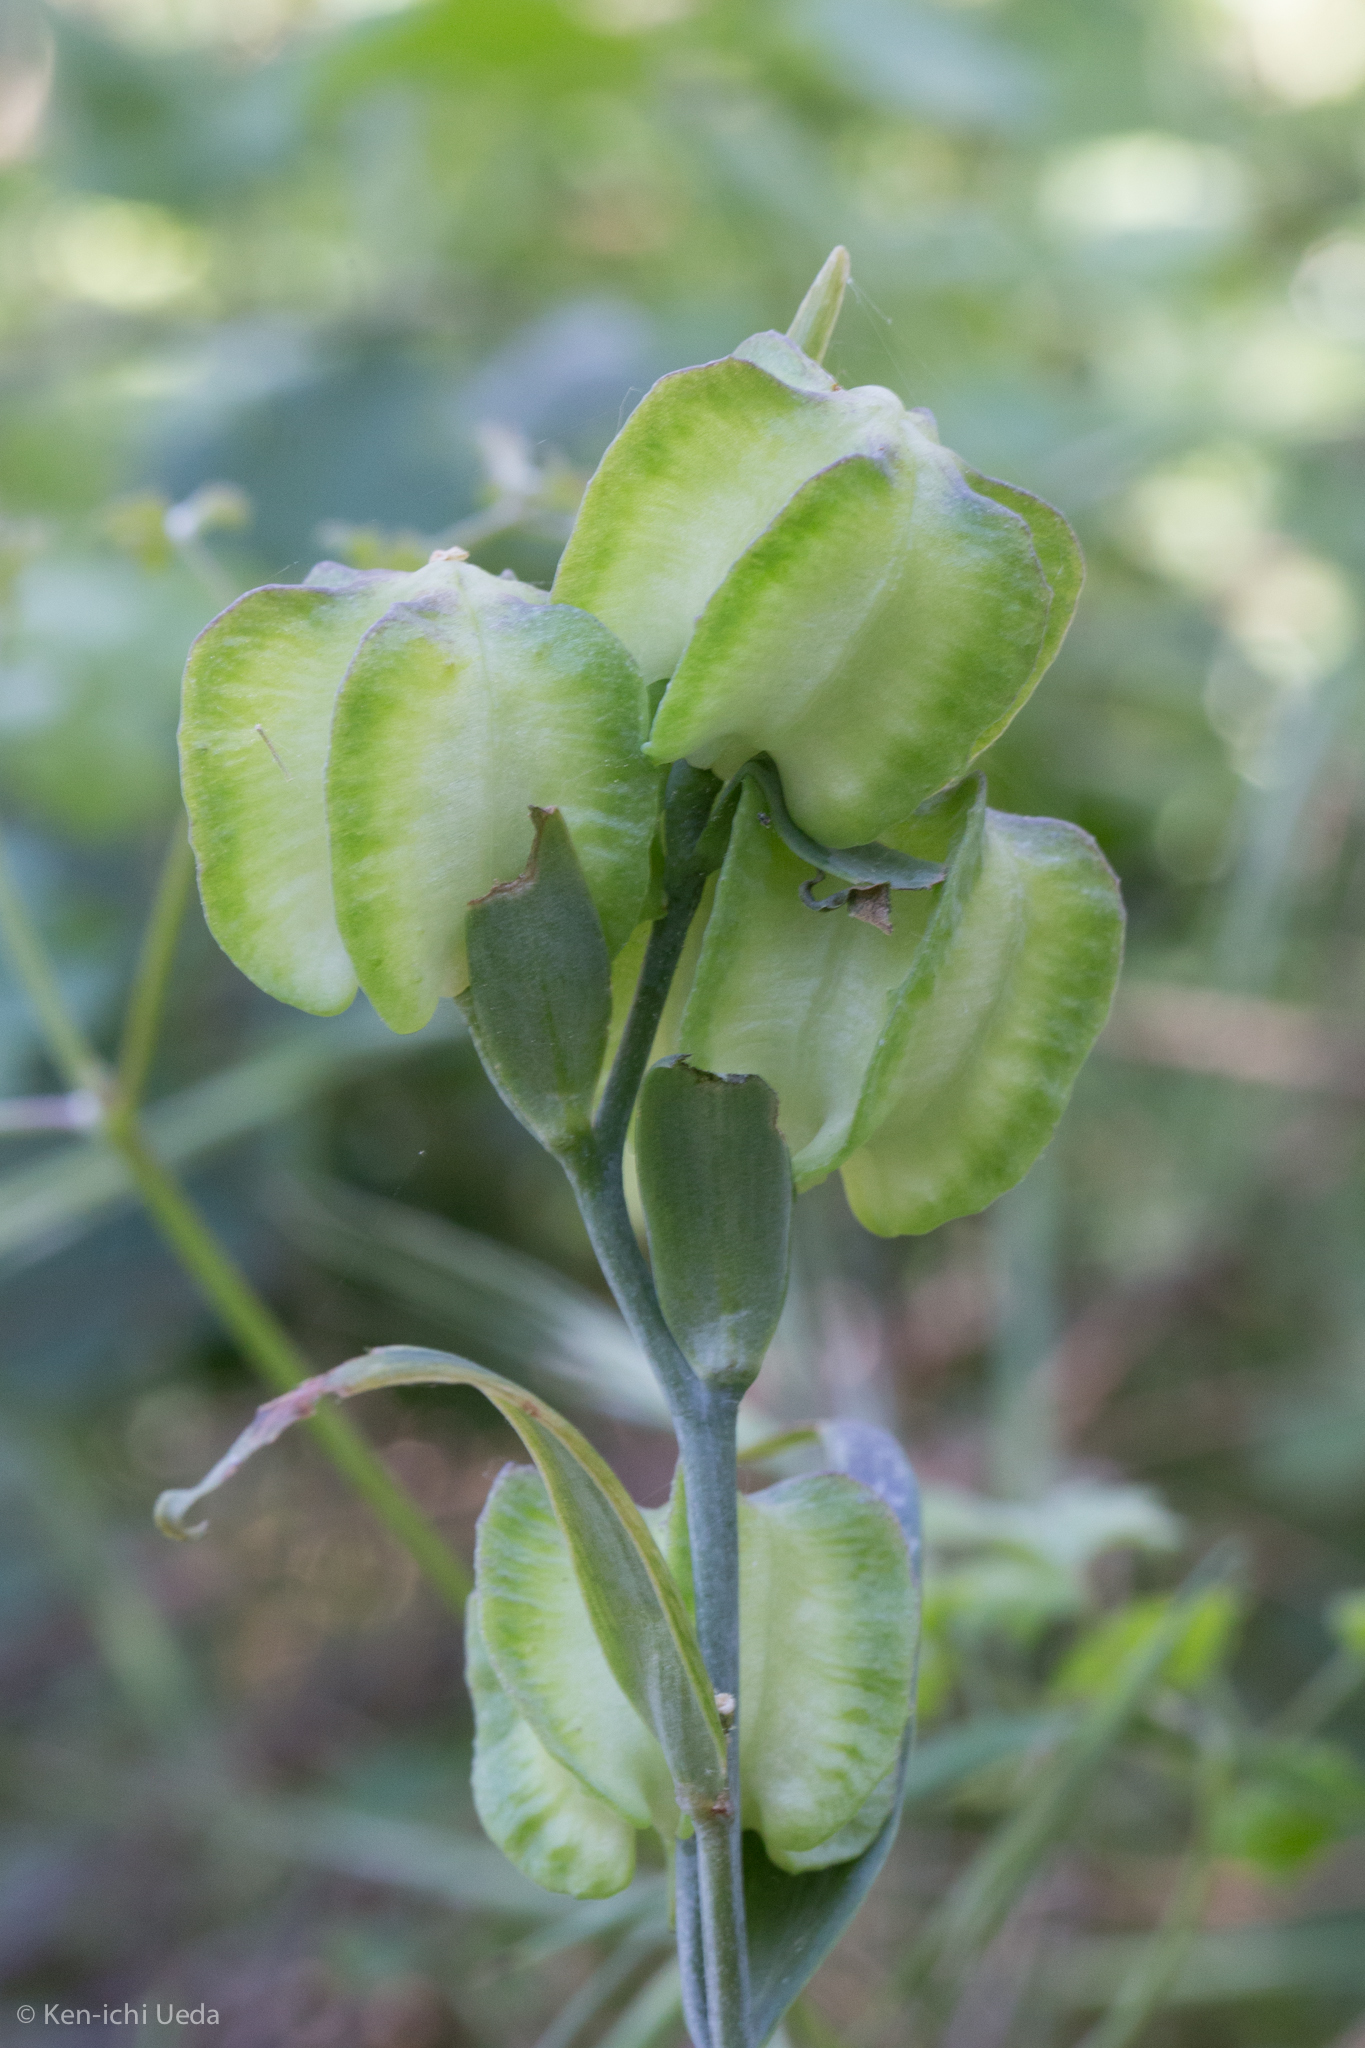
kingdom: Plantae
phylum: Tracheophyta
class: Liliopsida
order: Liliales
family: Liliaceae
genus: Fritillaria
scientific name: Fritillaria affinis
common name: Ojai fritillary
